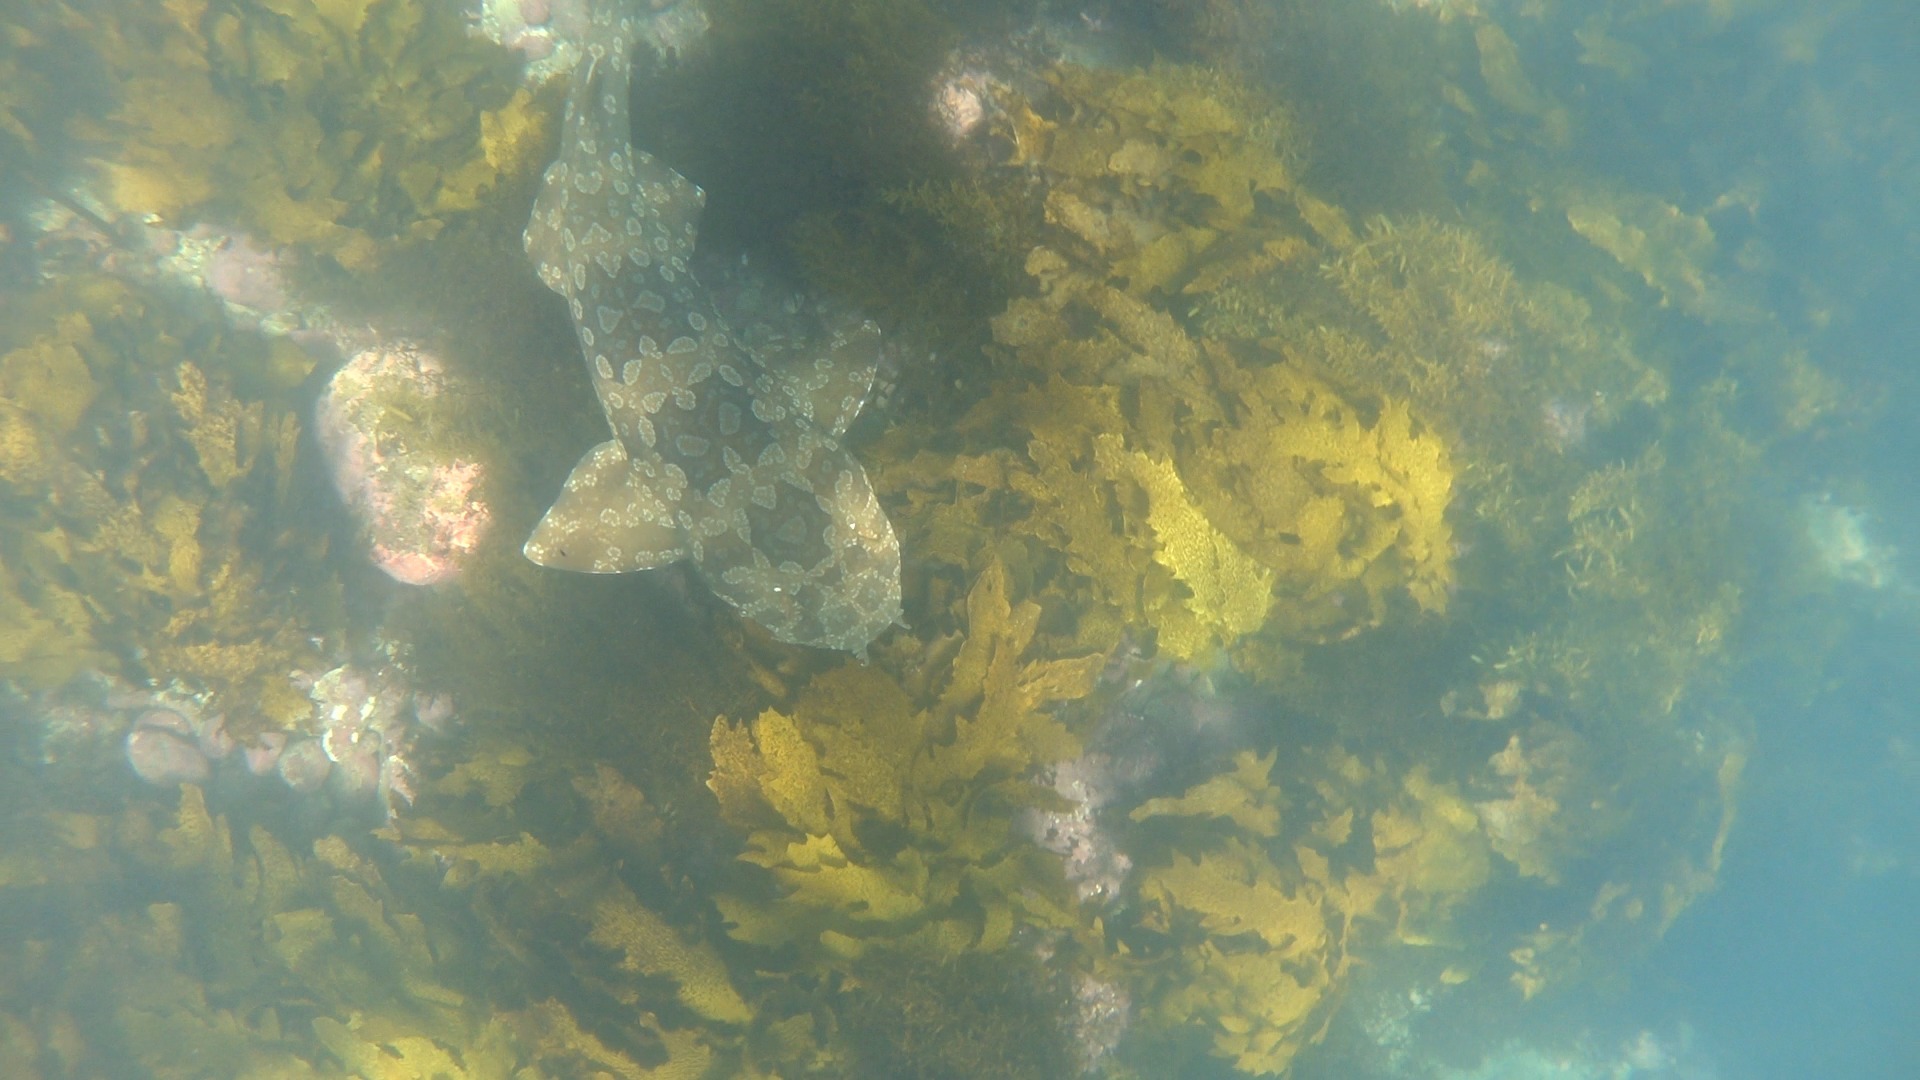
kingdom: Animalia
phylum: Chordata
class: Elasmobranchii
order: Orectolobiformes
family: Orectolobidae
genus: Orectolobus
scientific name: Orectolobus maculatus
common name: Spotted wobbegong
